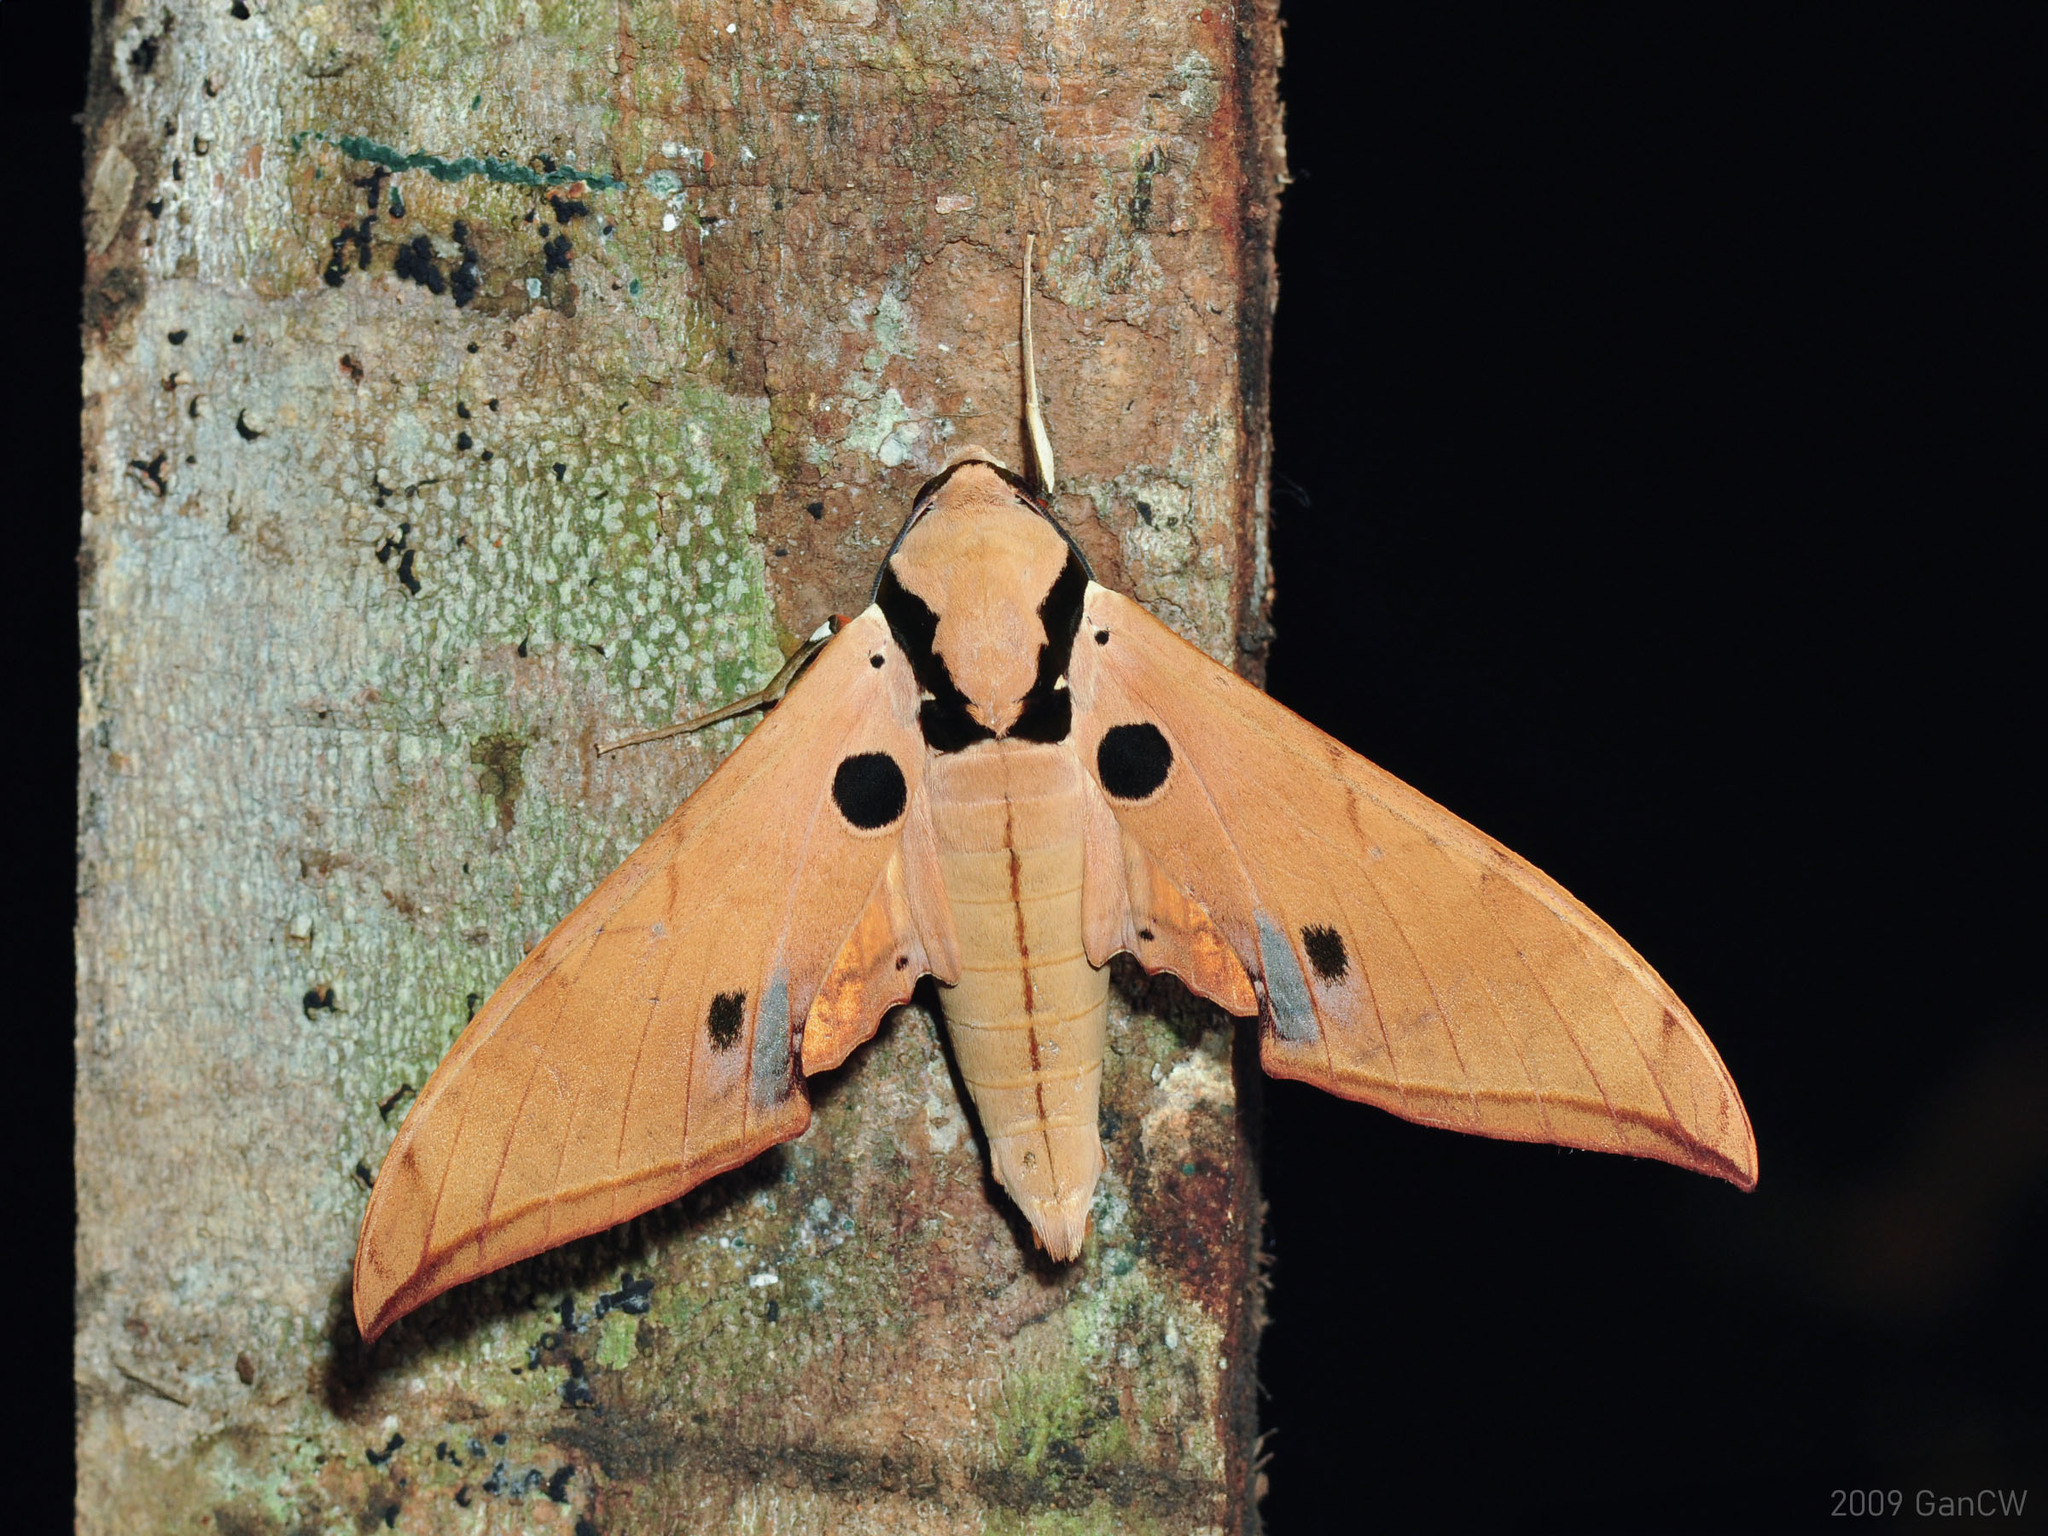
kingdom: Animalia
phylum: Arthropoda
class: Insecta
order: Lepidoptera
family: Sphingidae
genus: Ambulyx
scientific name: Ambulyx obliterata
